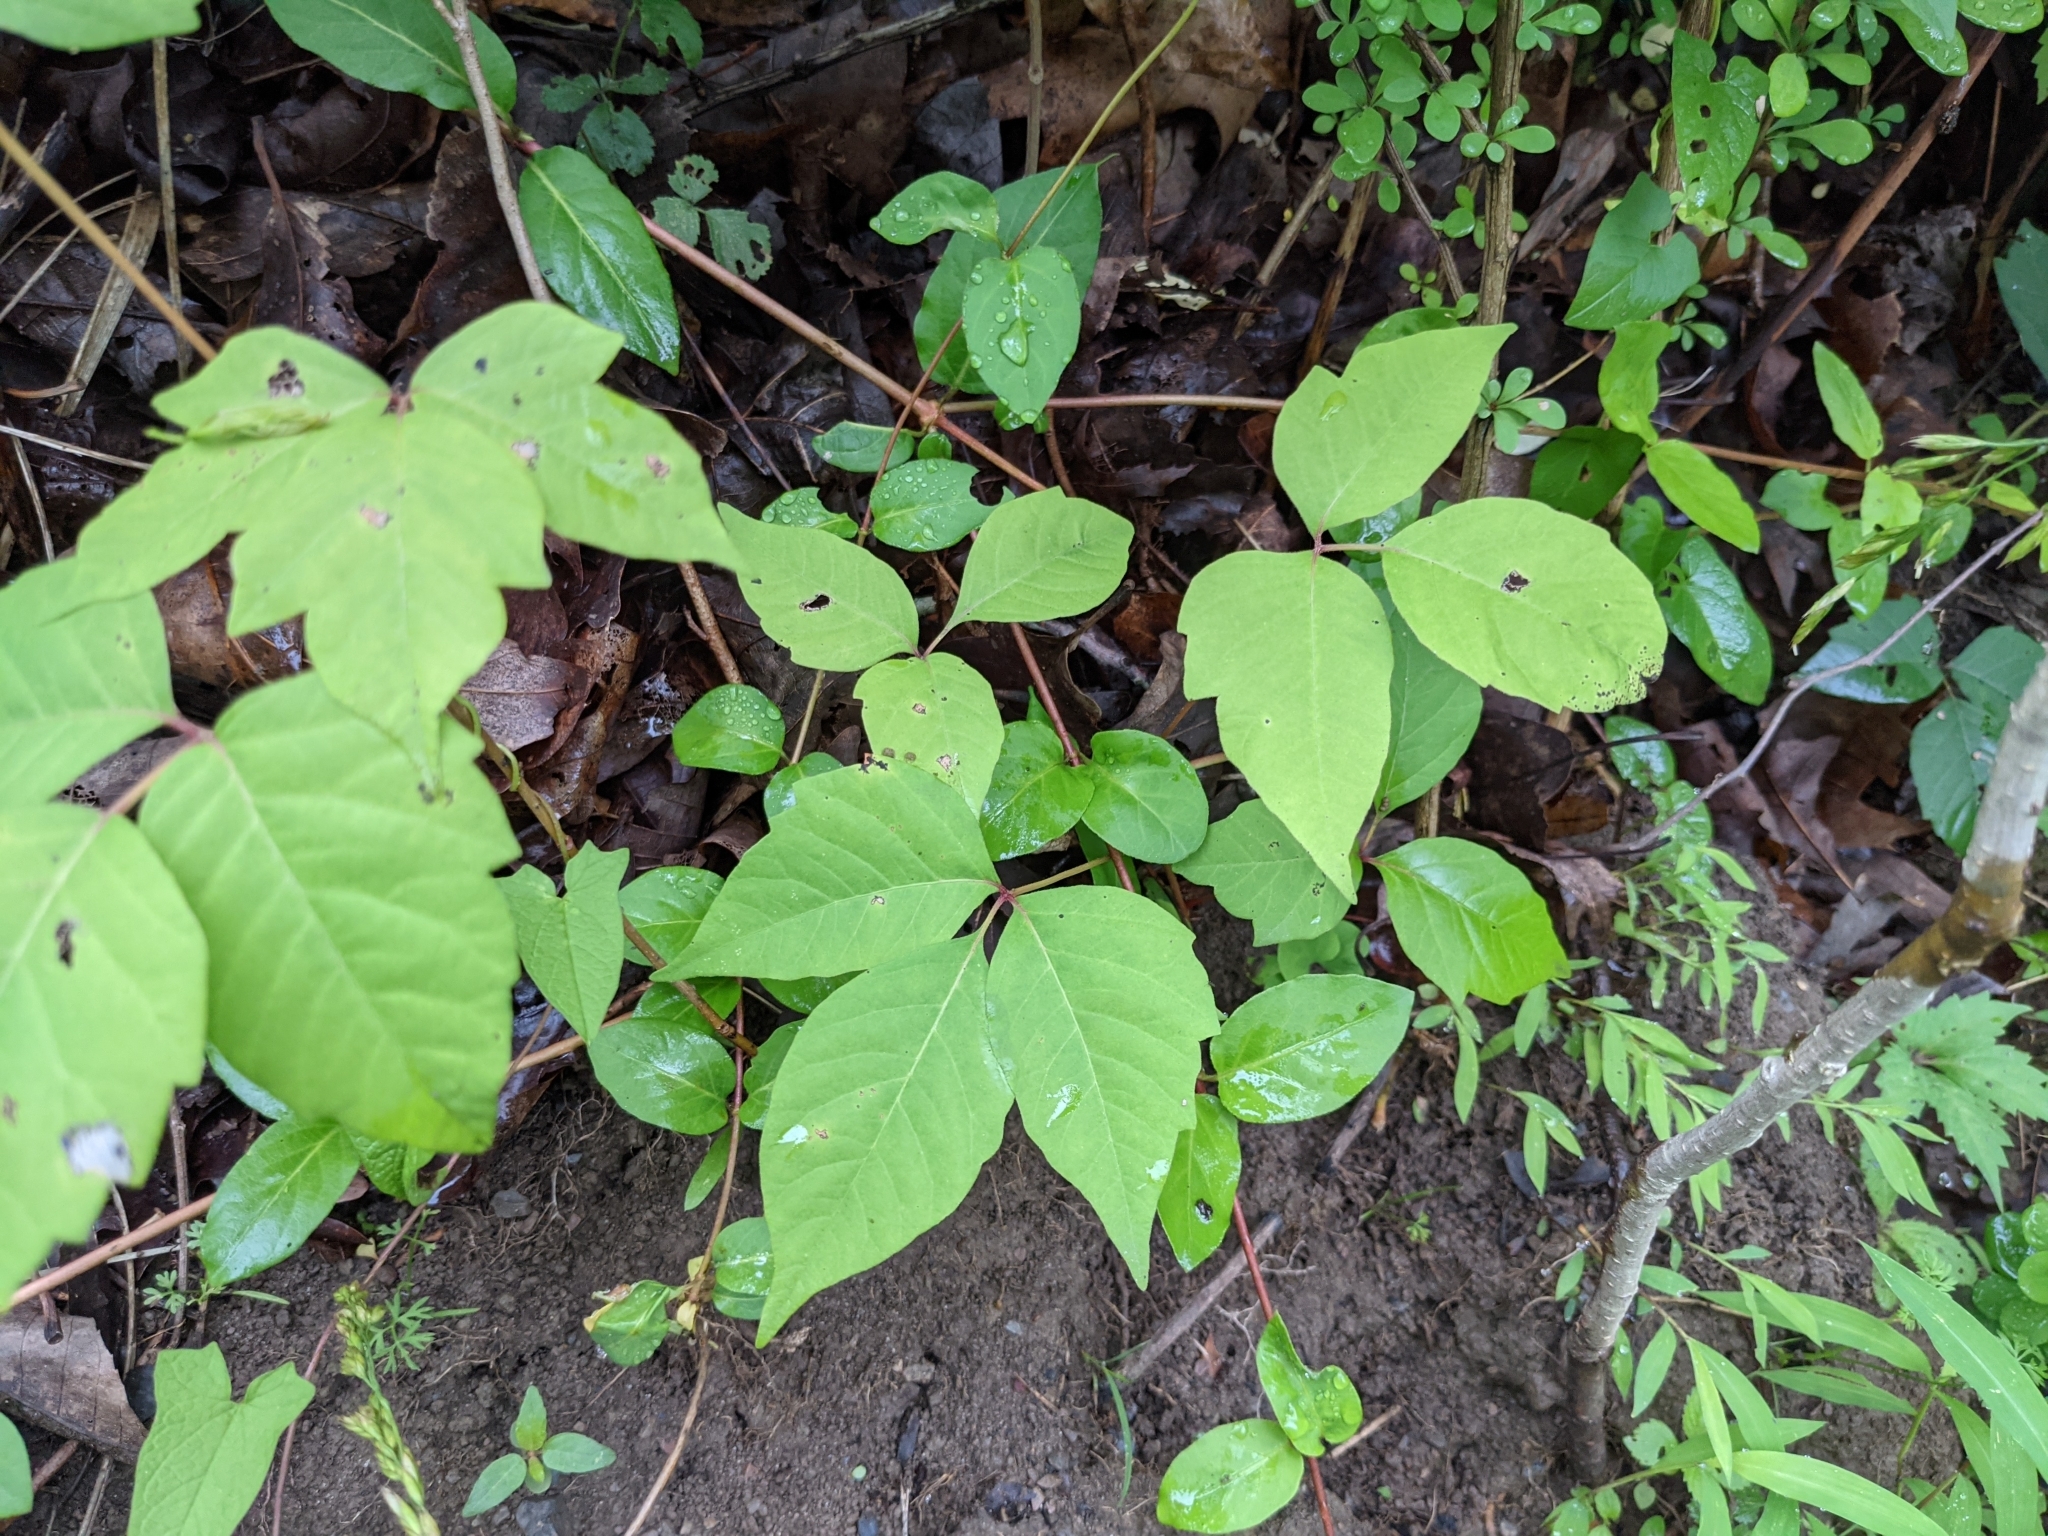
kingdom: Plantae
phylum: Tracheophyta
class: Magnoliopsida
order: Sapindales
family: Anacardiaceae
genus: Toxicodendron
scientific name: Toxicodendron radicans
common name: Poison ivy
